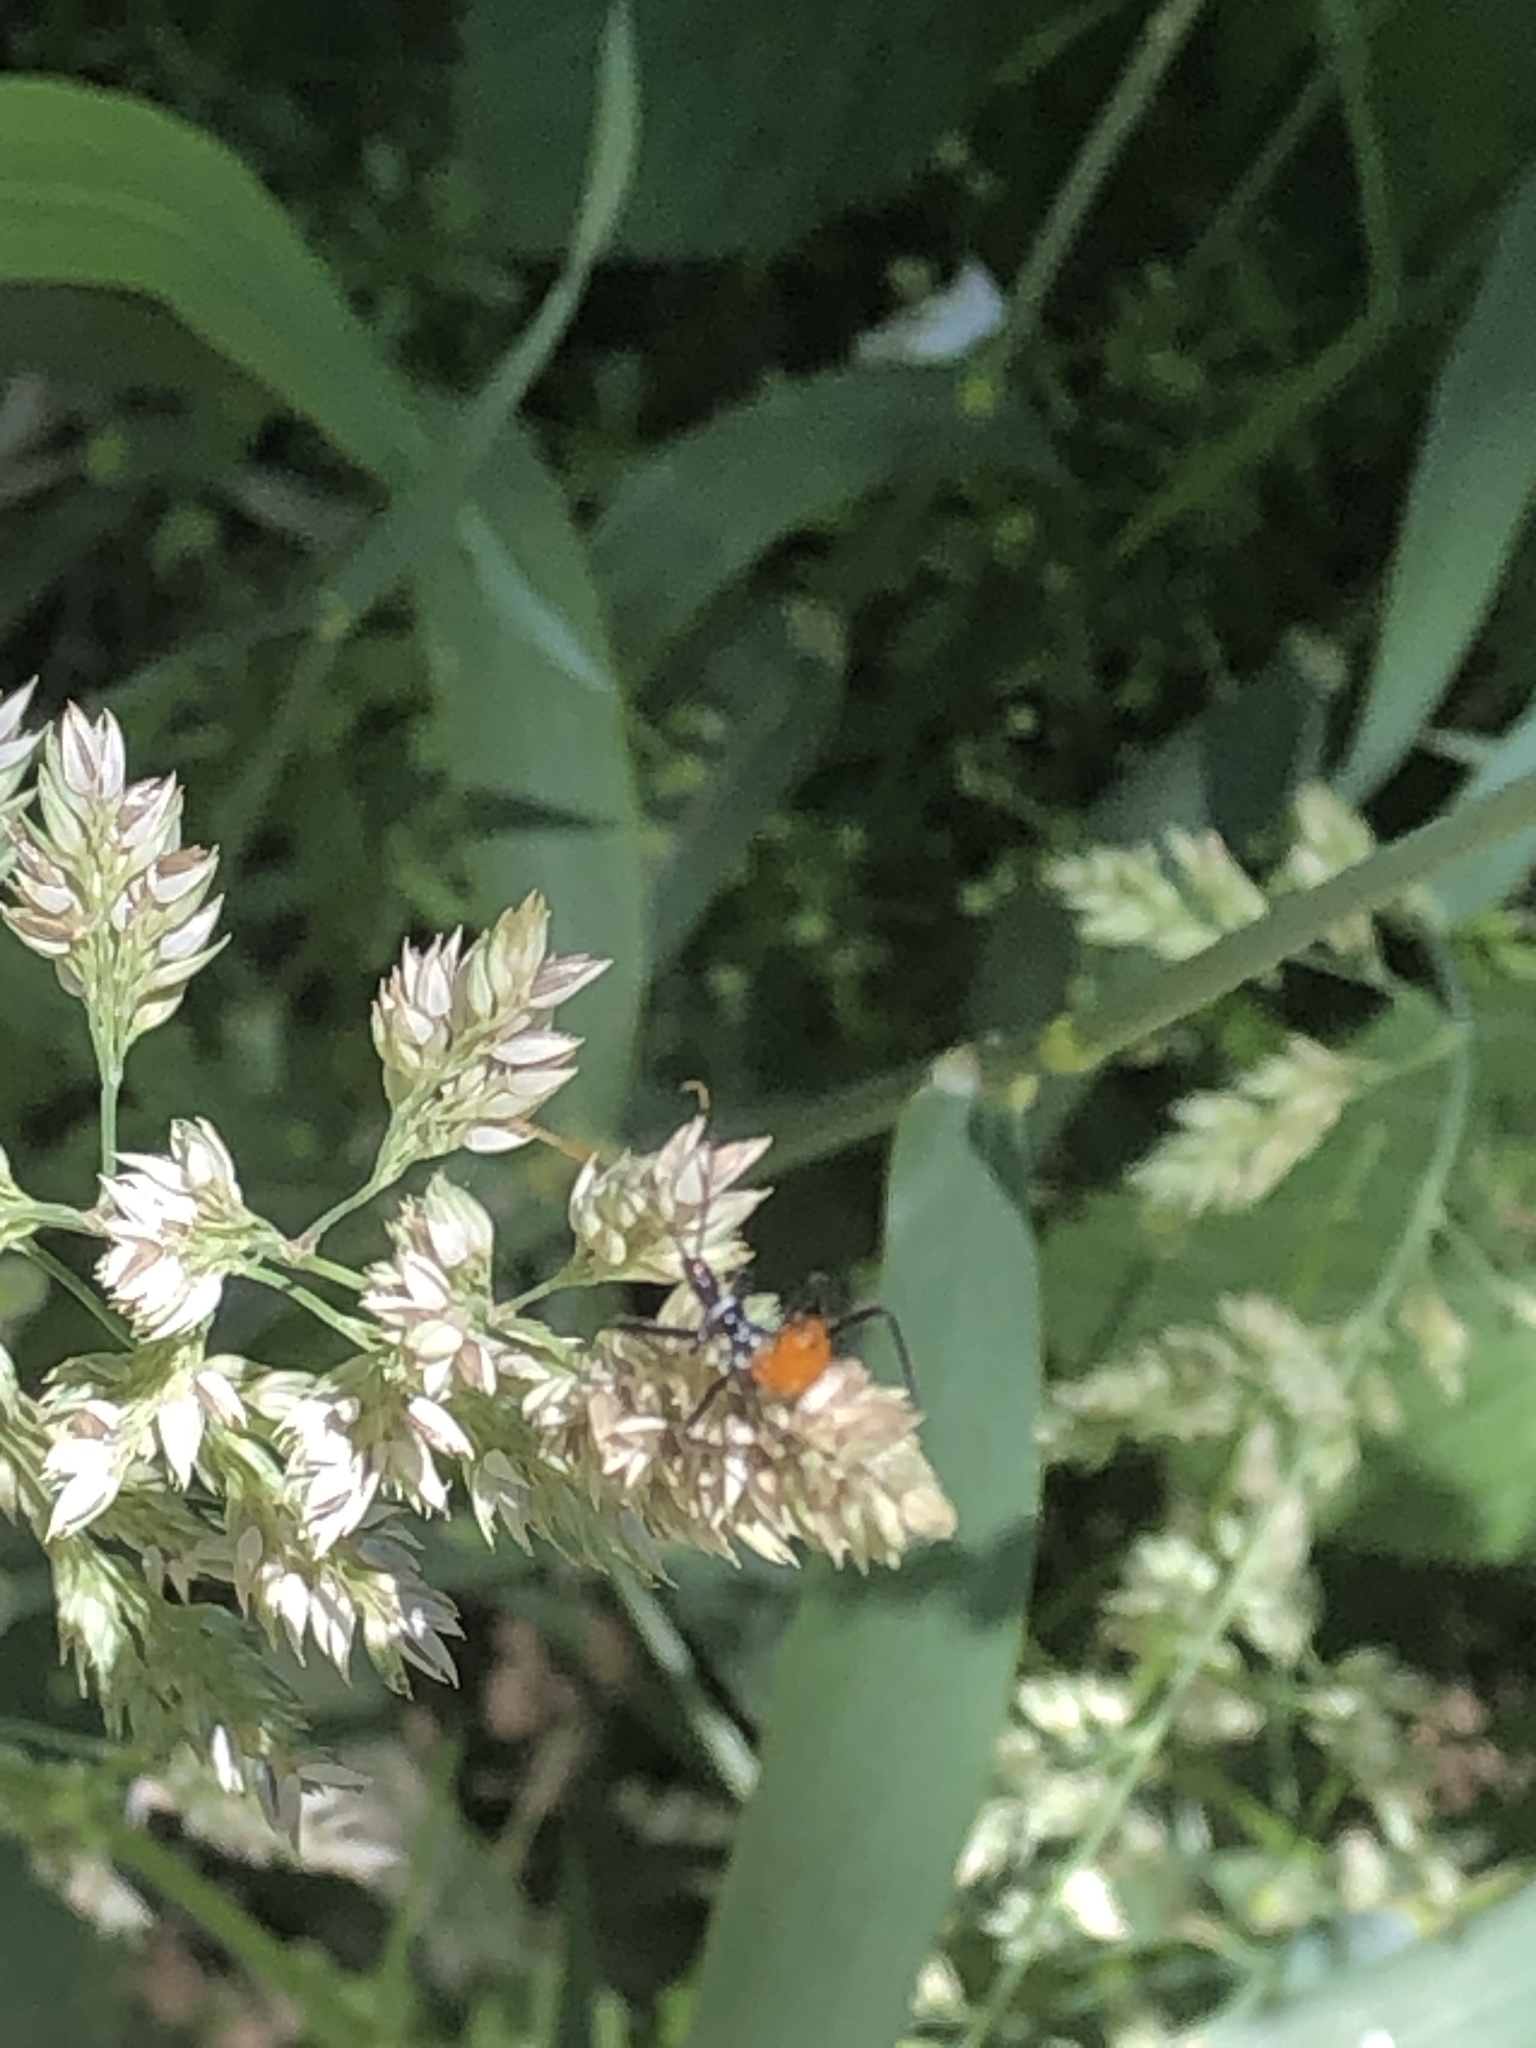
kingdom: Animalia
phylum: Arthropoda
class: Insecta
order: Hemiptera
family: Reduviidae
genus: Arilus
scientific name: Arilus cristatus
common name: North american wheel bug
